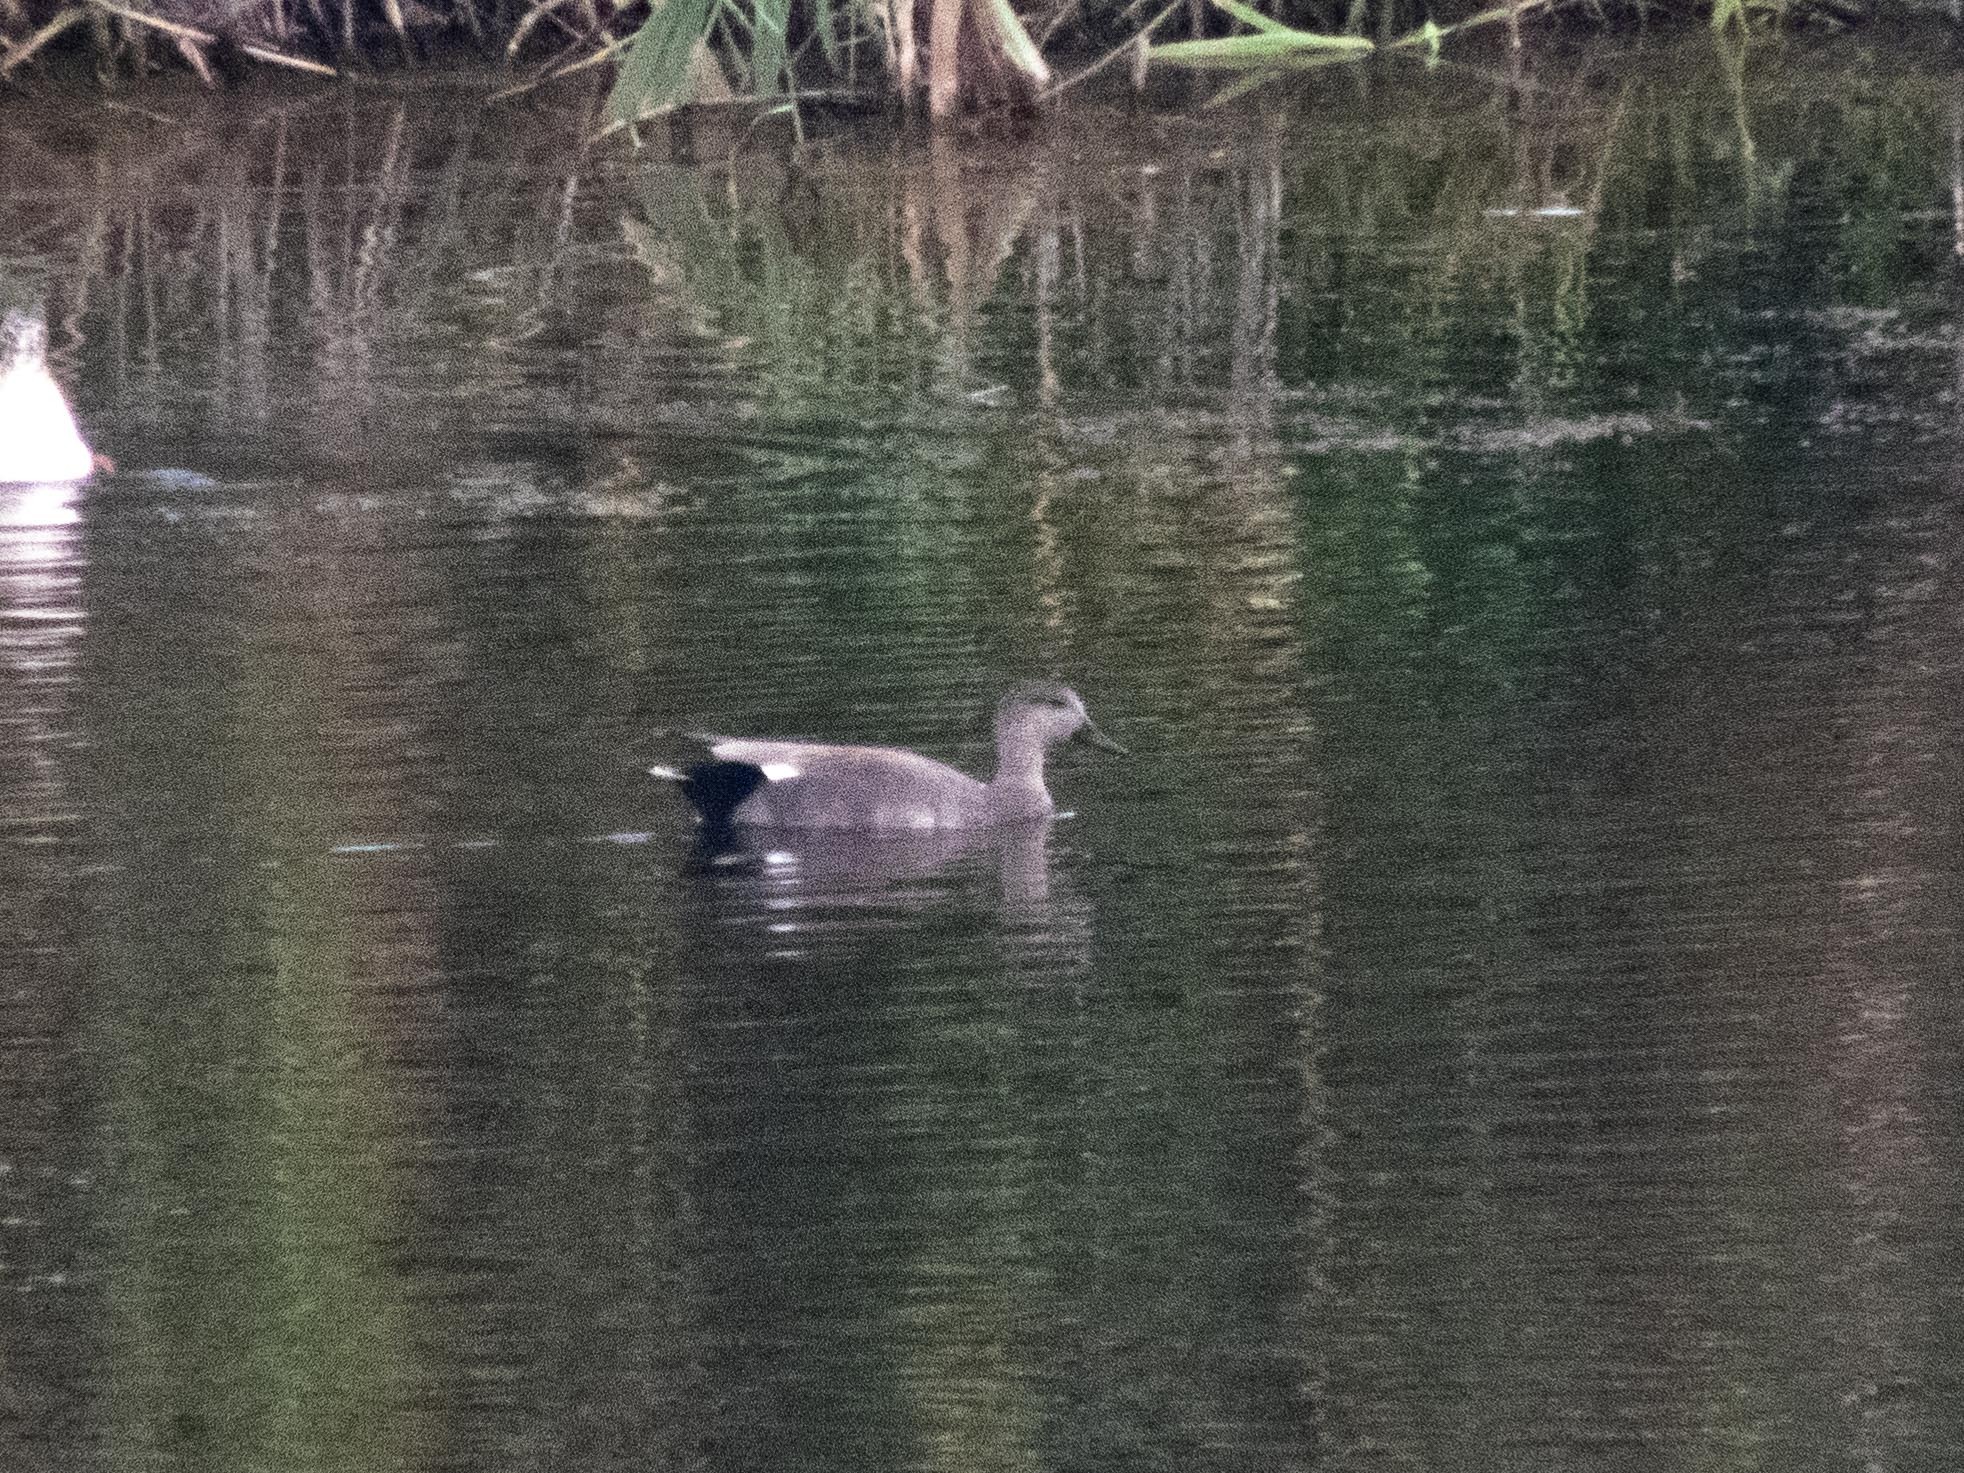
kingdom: Animalia
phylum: Chordata
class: Aves
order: Anseriformes
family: Anatidae
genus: Mareca
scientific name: Mareca strepera
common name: Gadwall
